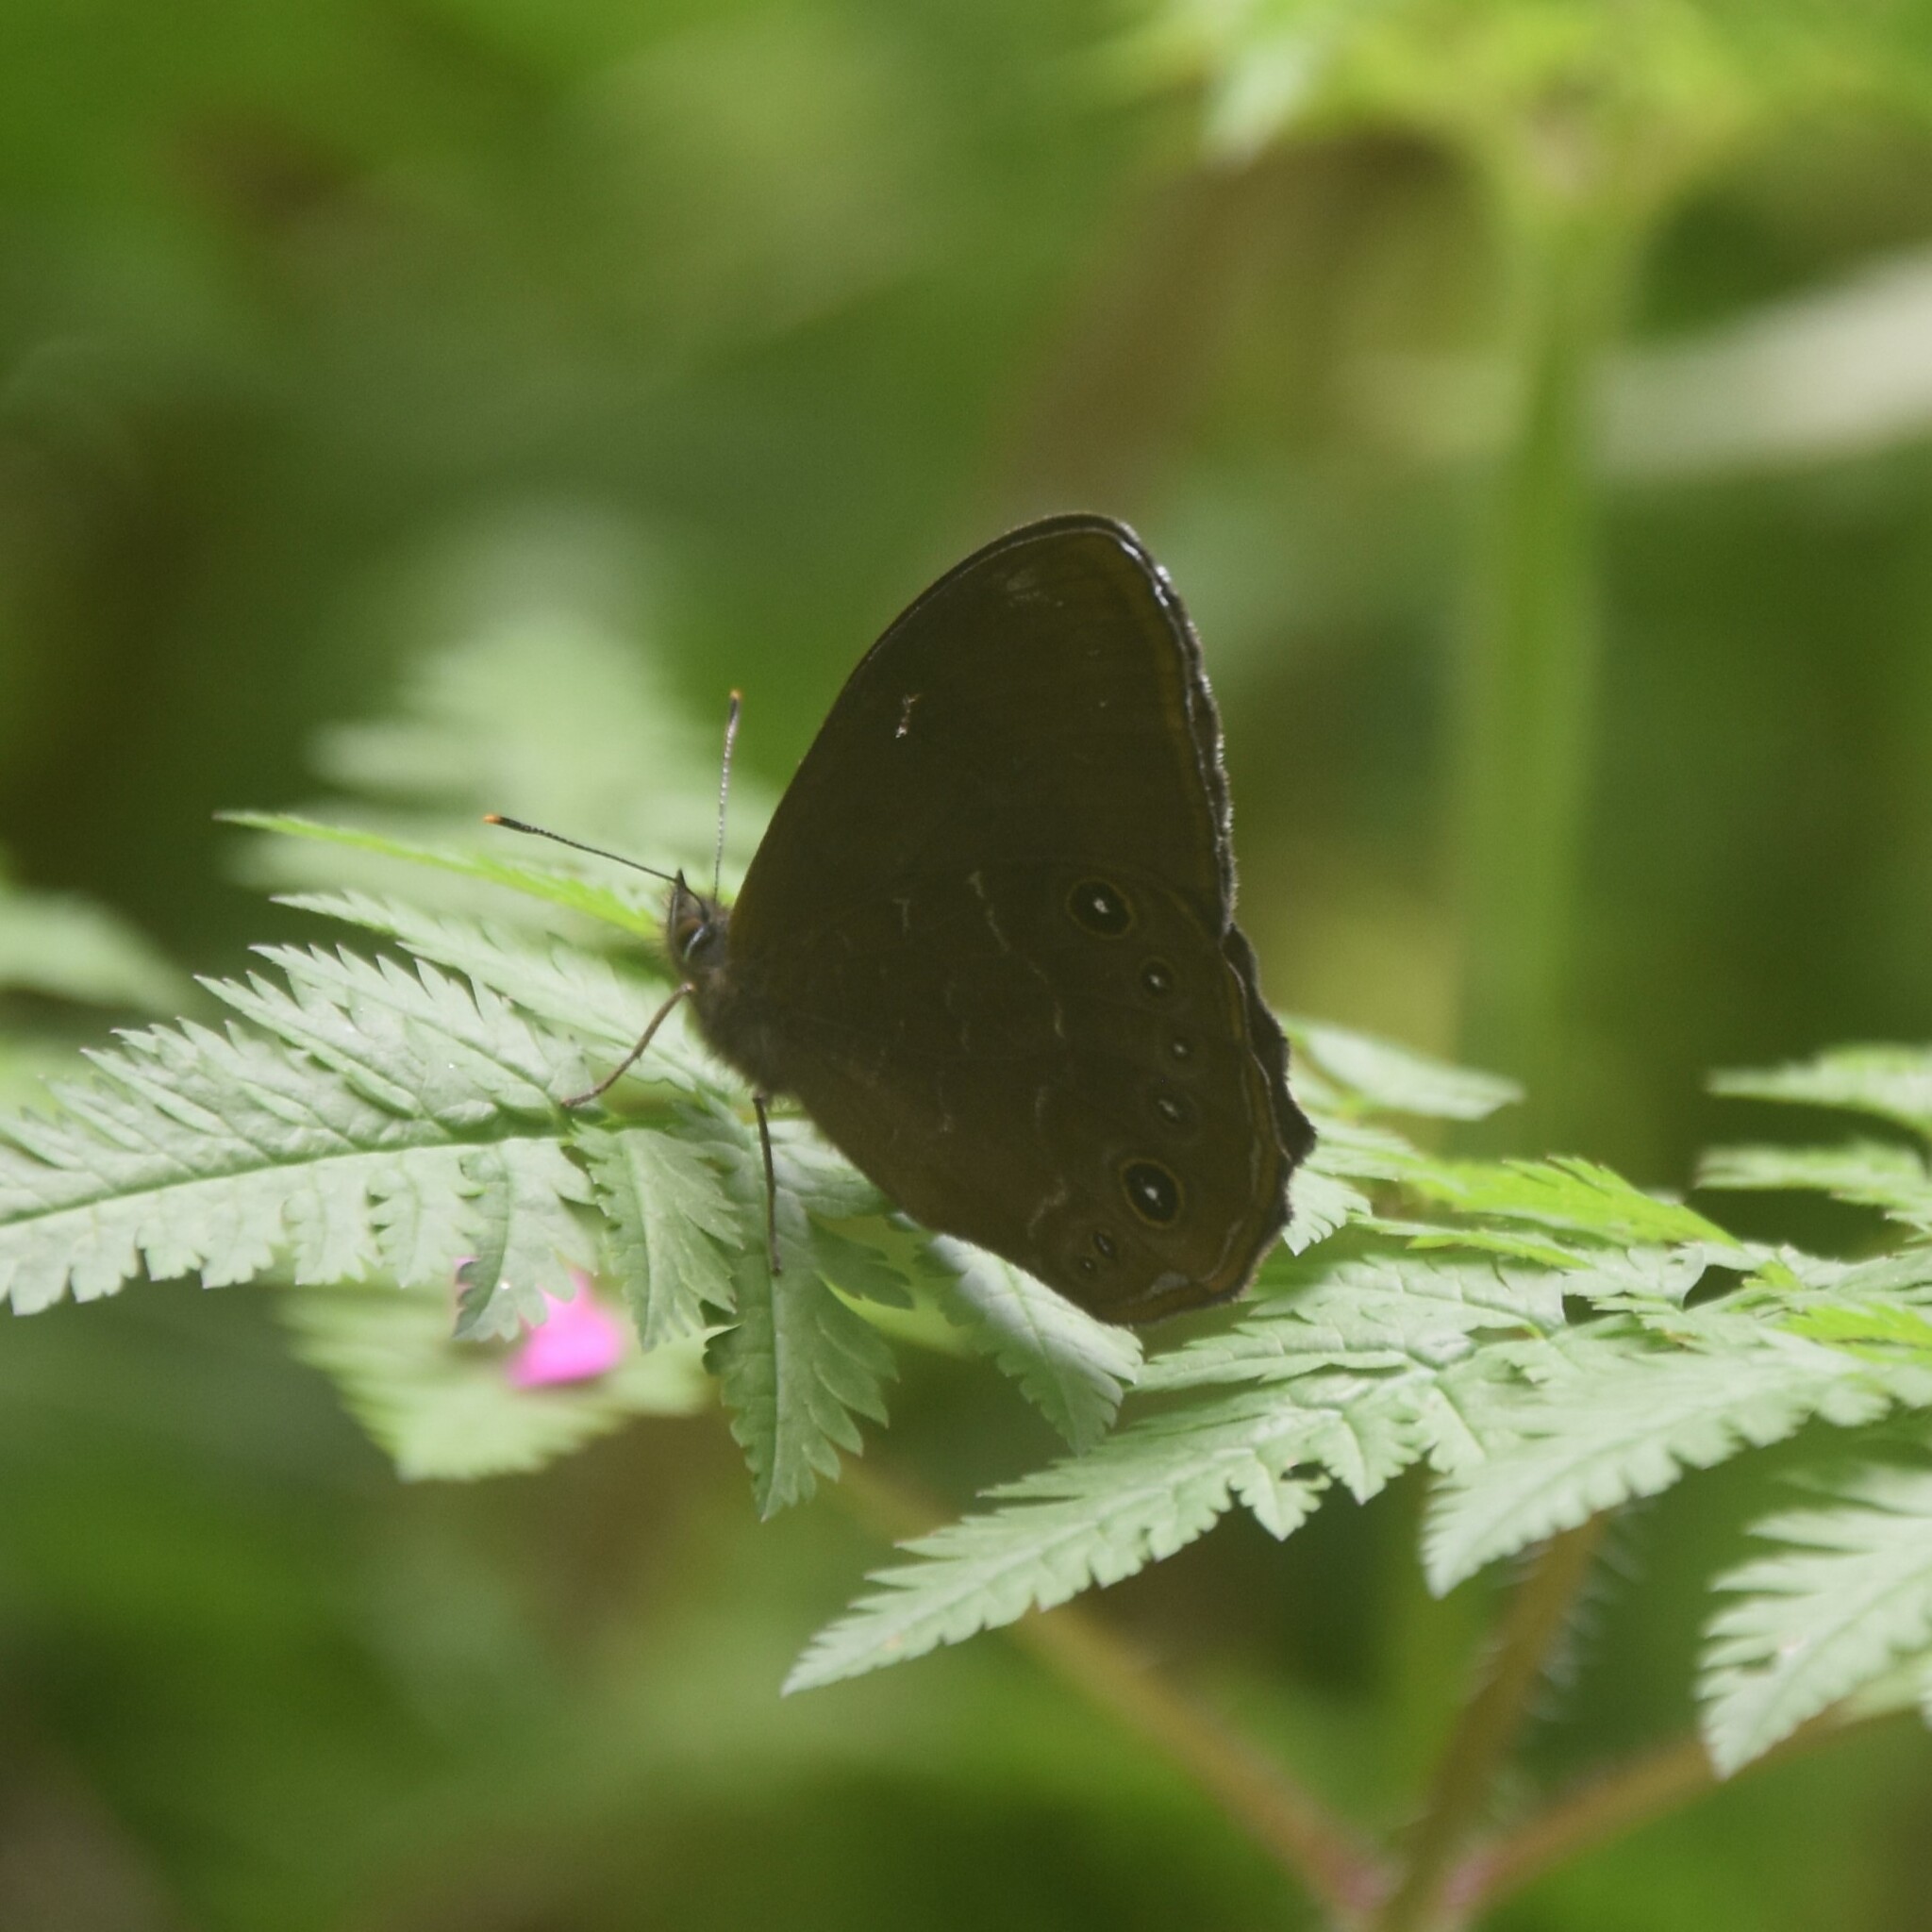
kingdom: Animalia
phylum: Arthropoda
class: Insecta
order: Lepidoptera
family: Nymphalidae
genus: Lethe
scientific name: Lethe sidonis
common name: Common woodbrown butterfly
